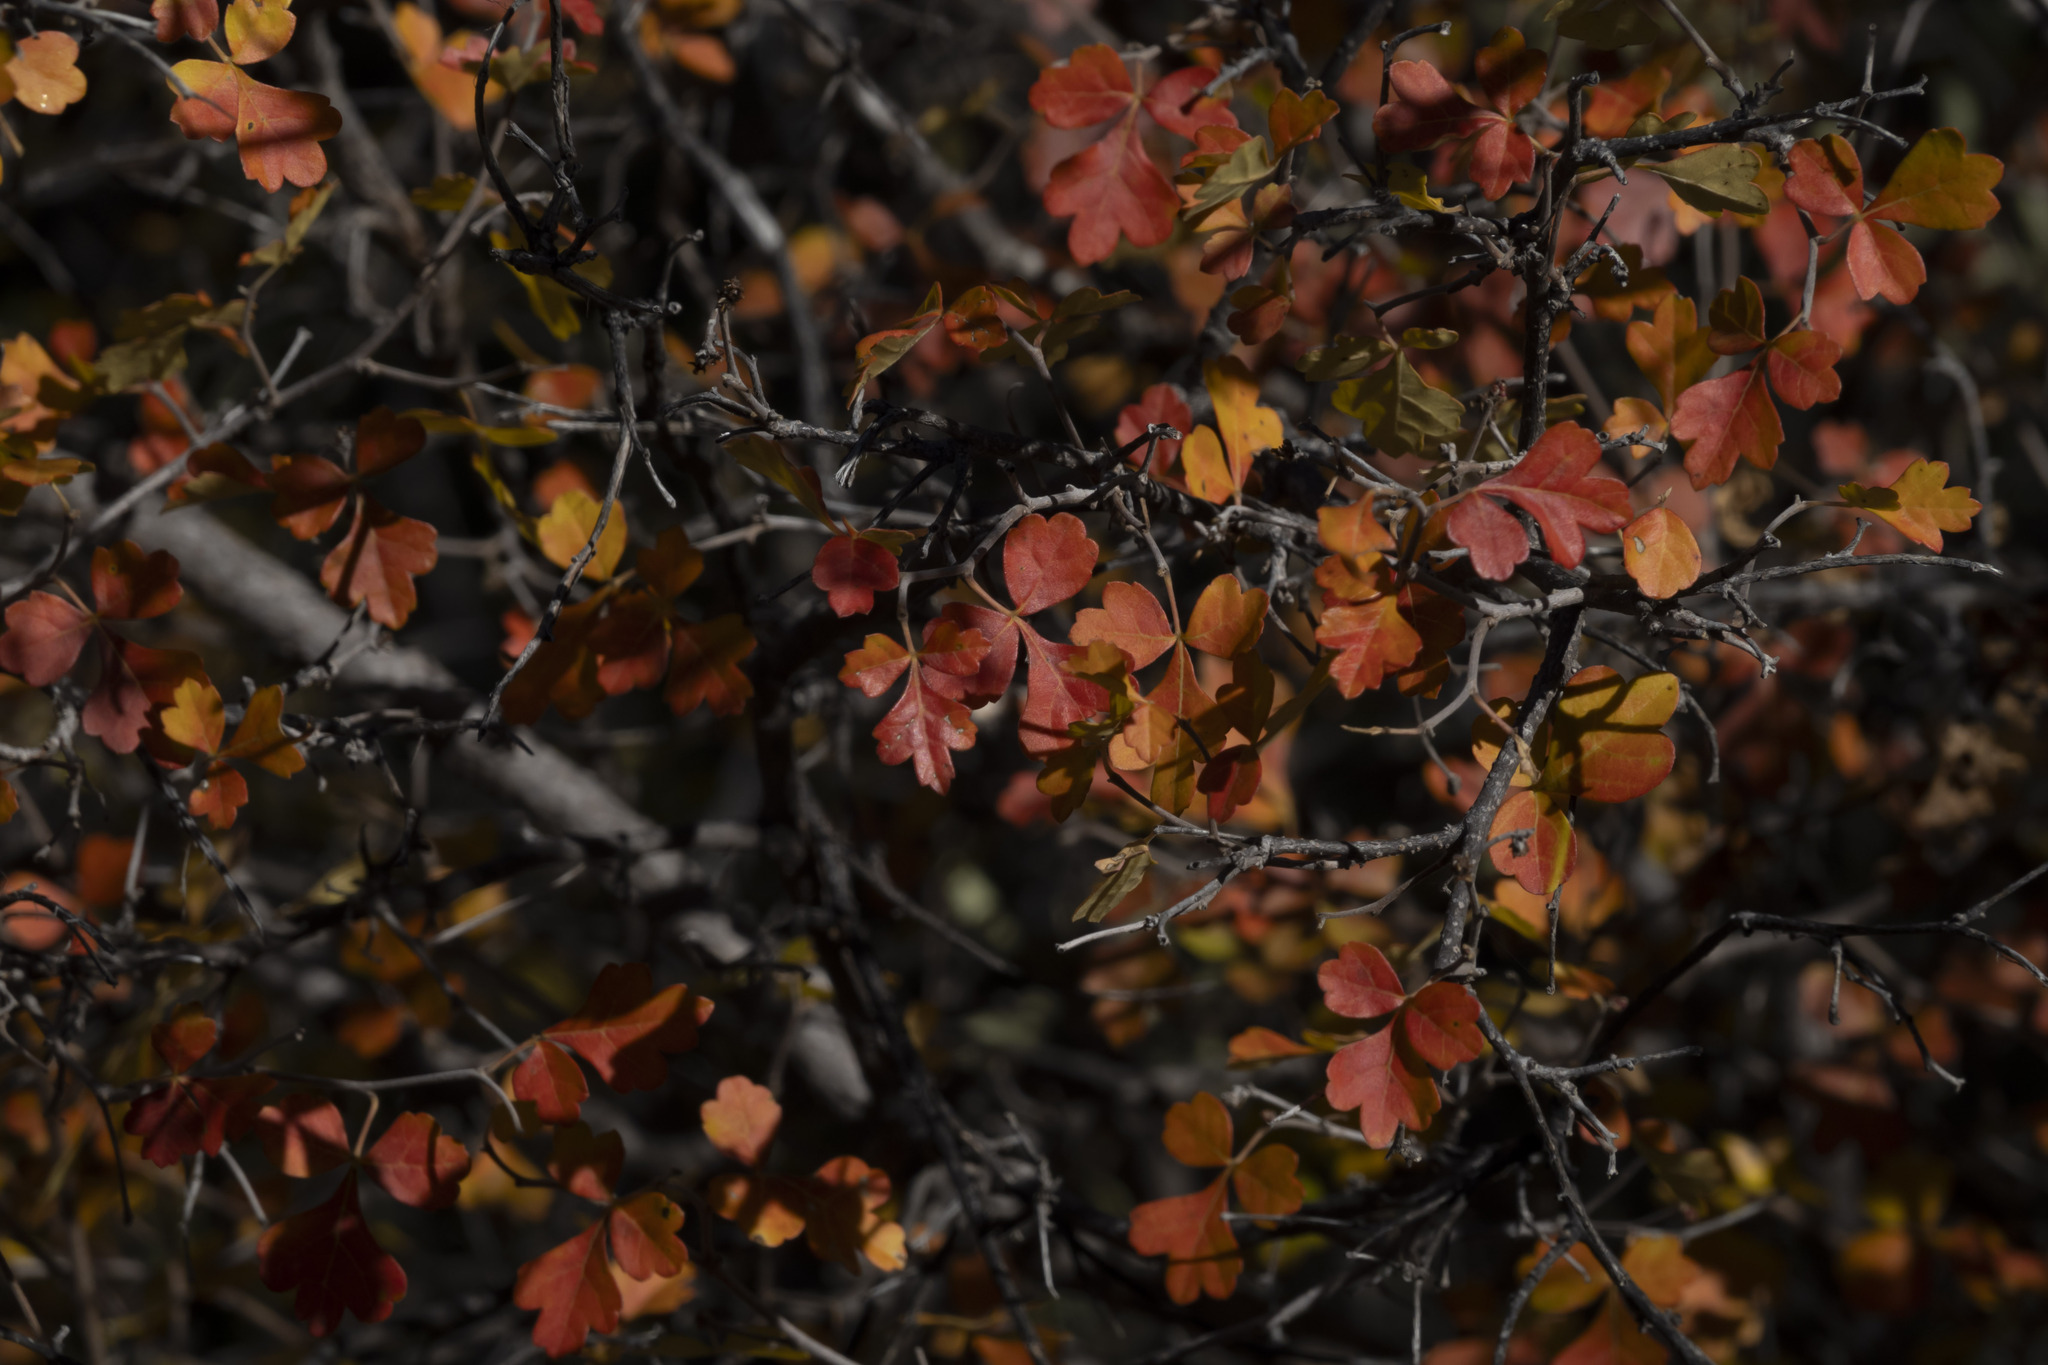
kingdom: Plantae
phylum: Tracheophyta
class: Magnoliopsida
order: Sapindales
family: Anacardiaceae
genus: Rhus
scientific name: Rhus aromatica
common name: Aromatic sumac
